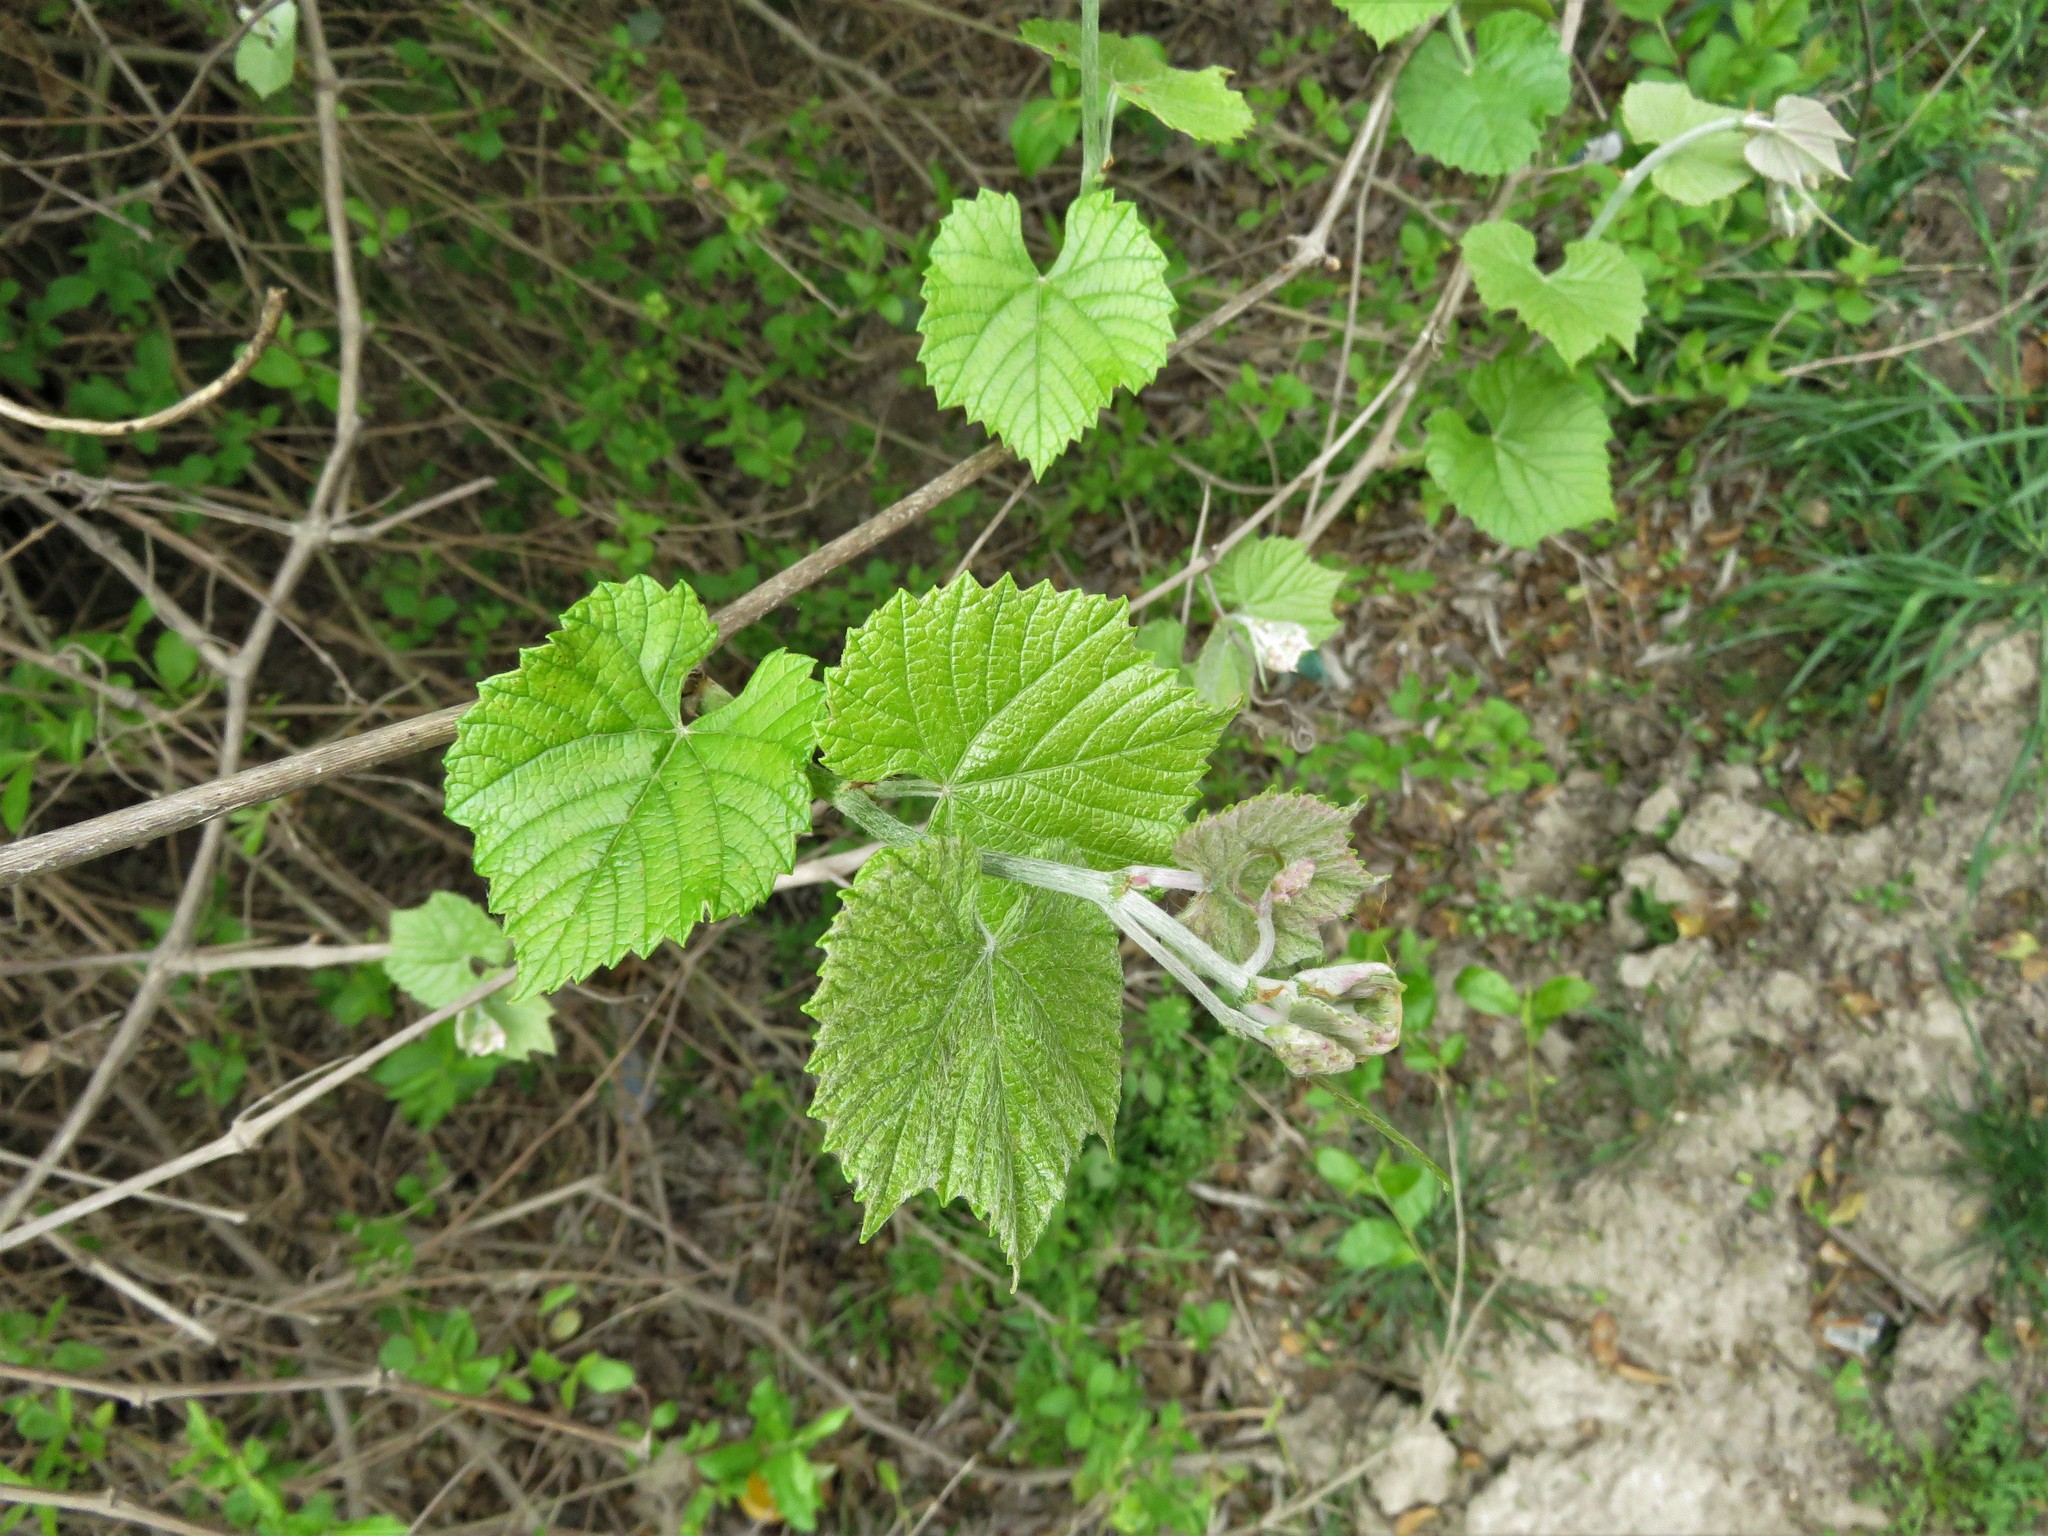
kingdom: Plantae
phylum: Tracheophyta
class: Magnoliopsida
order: Vitales
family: Vitaceae
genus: Vitis
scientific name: Vitis mustangensis
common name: Mustang grape
